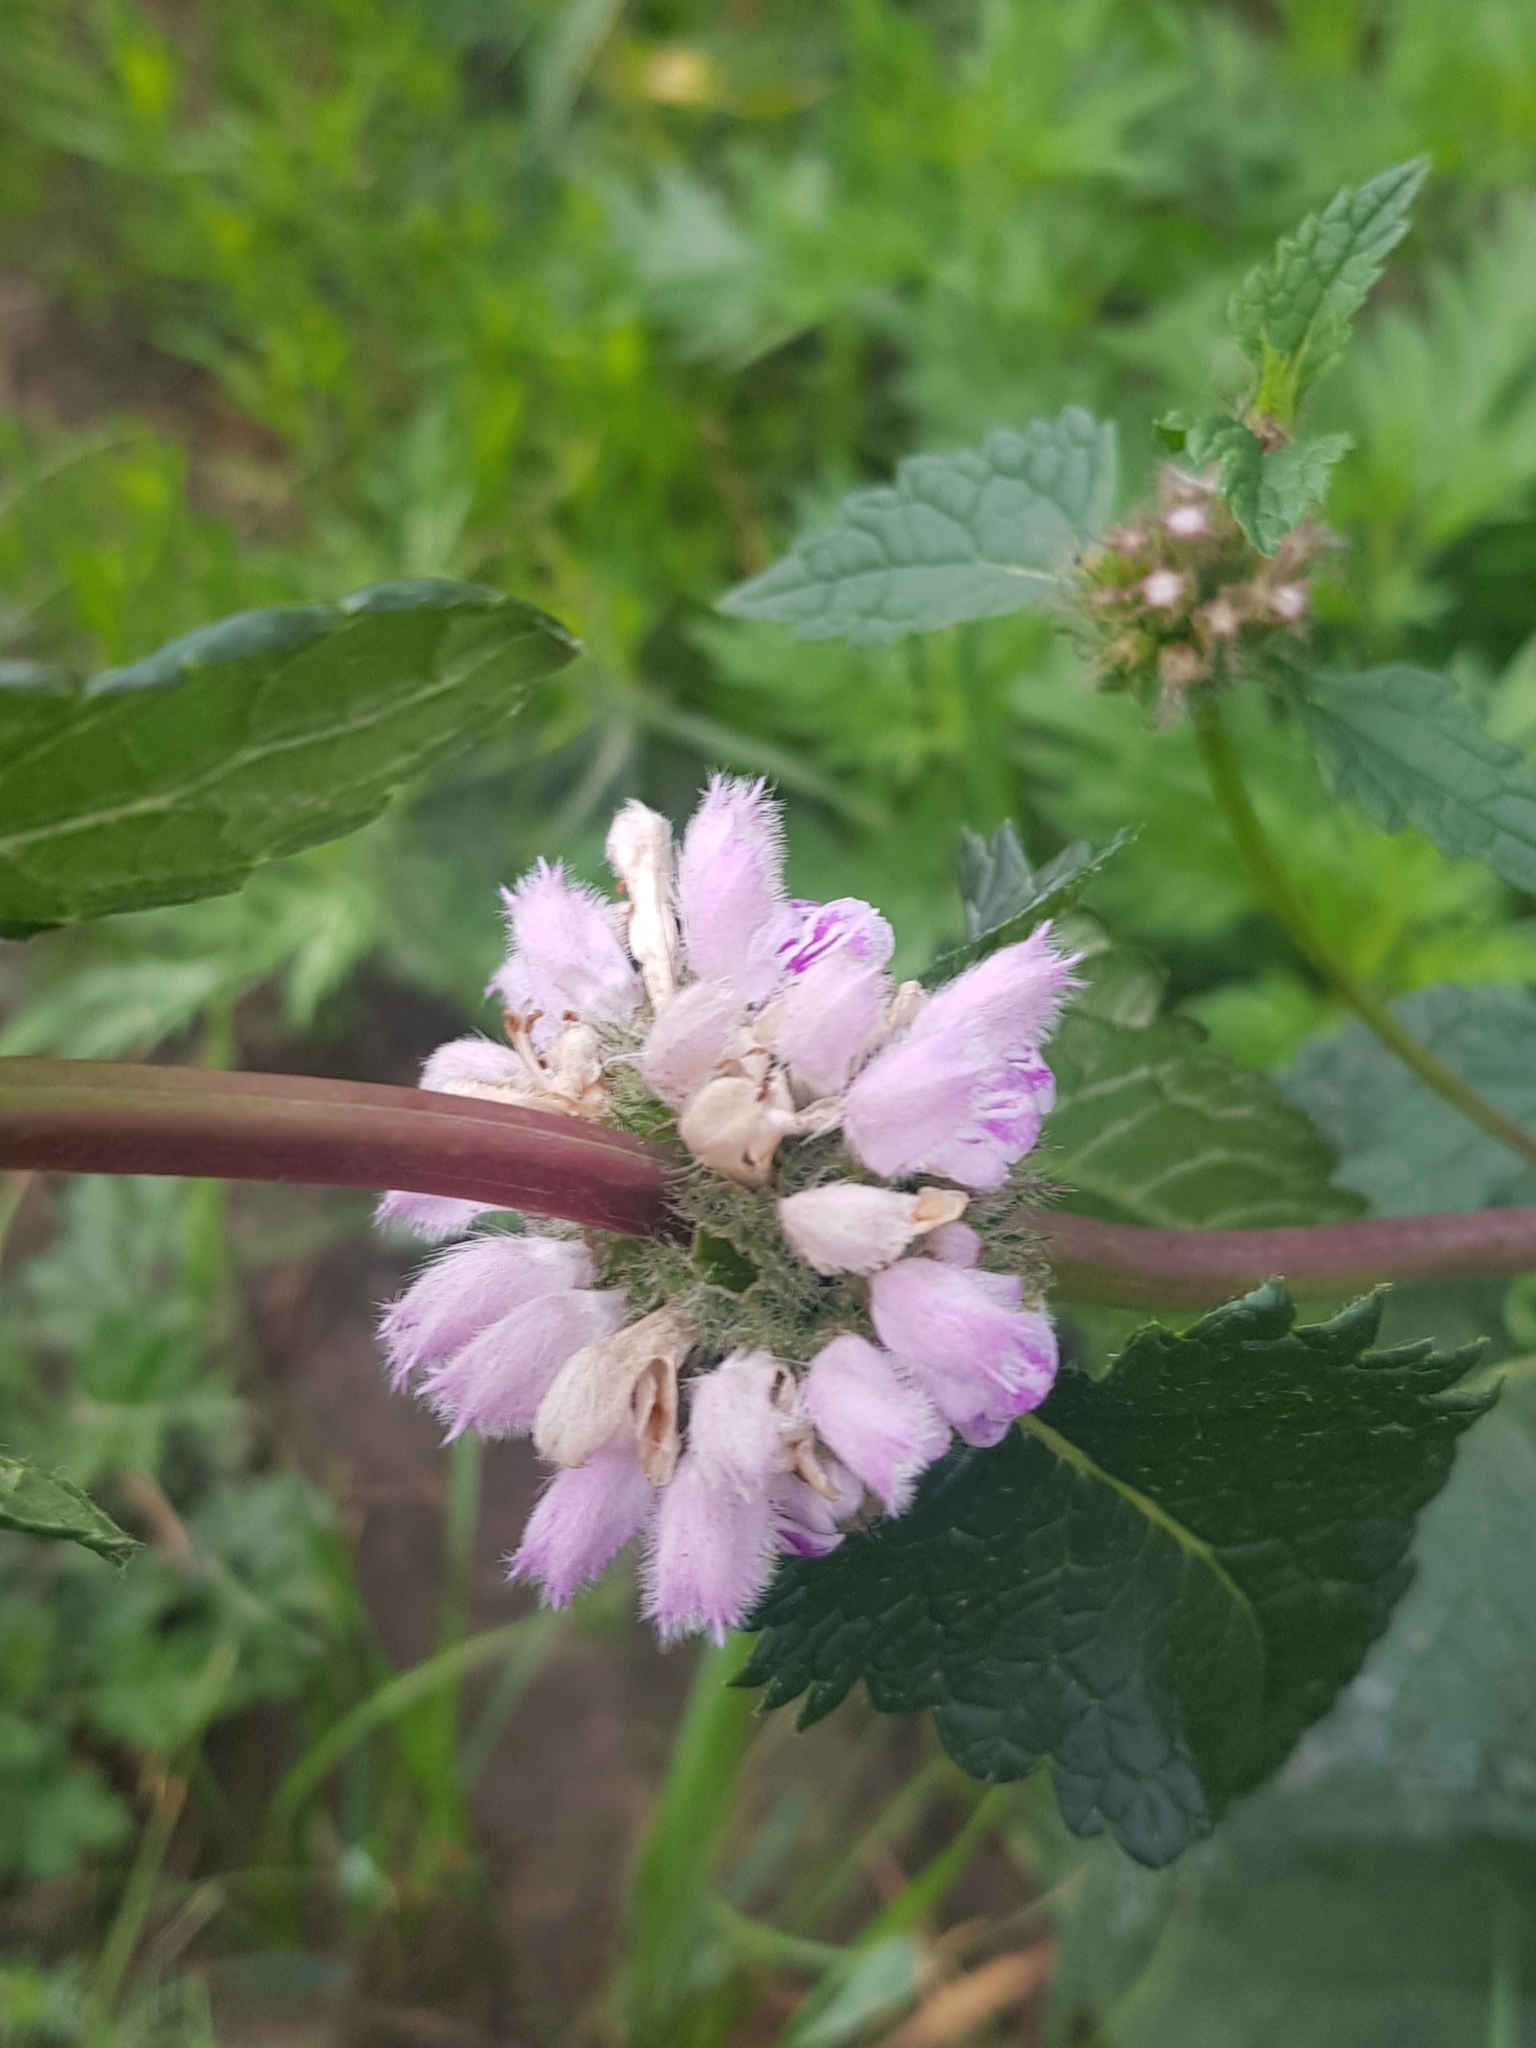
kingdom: Plantae
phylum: Tracheophyta
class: Magnoliopsida
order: Lamiales
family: Lamiaceae
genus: Phlomoides
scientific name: Phlomoides tuberosa
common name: Tuberous jerusalem sage
